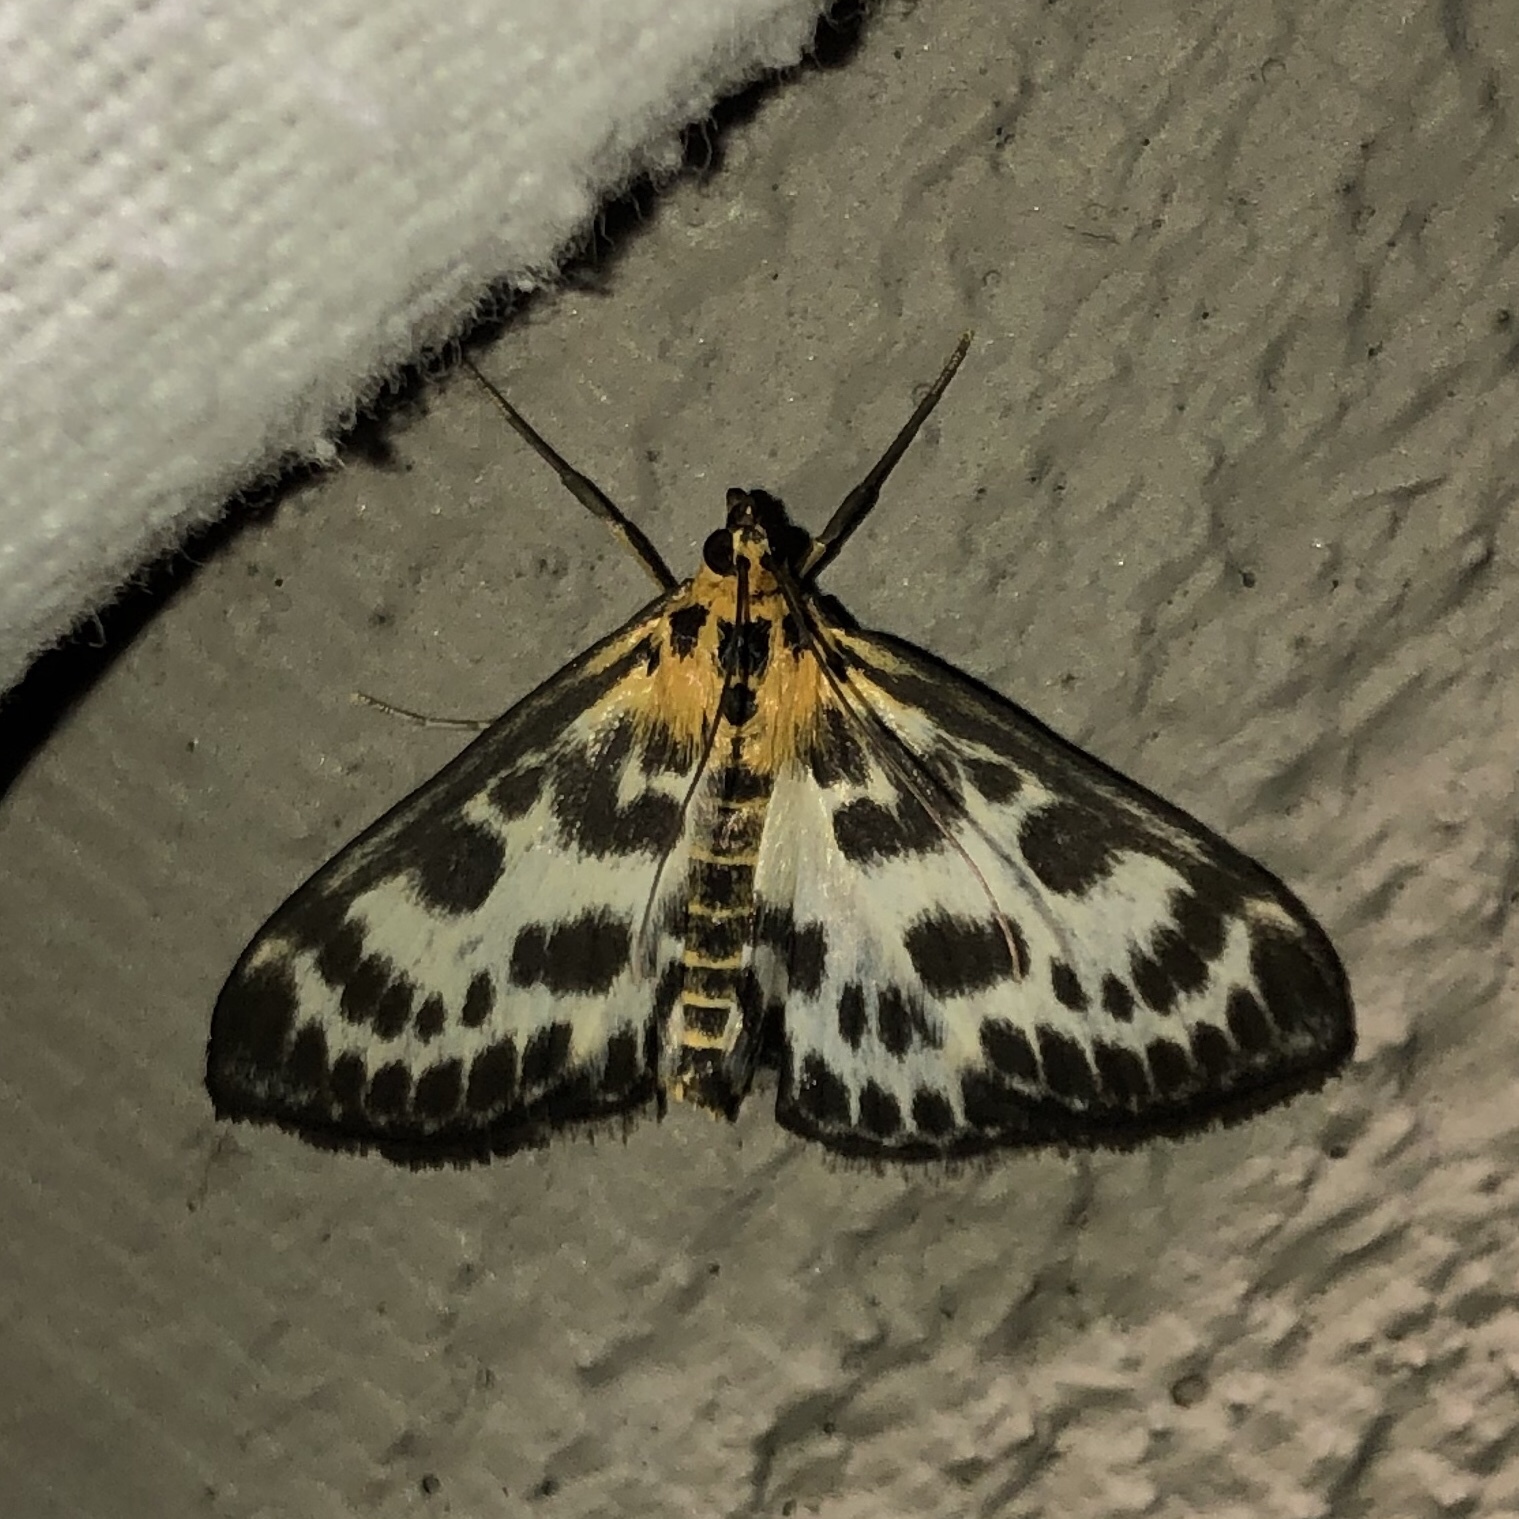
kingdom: Animalia
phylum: Arthropoda
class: Insecta
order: Lepidoptera
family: Crambidae
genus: Anania
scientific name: Anania hortulata
